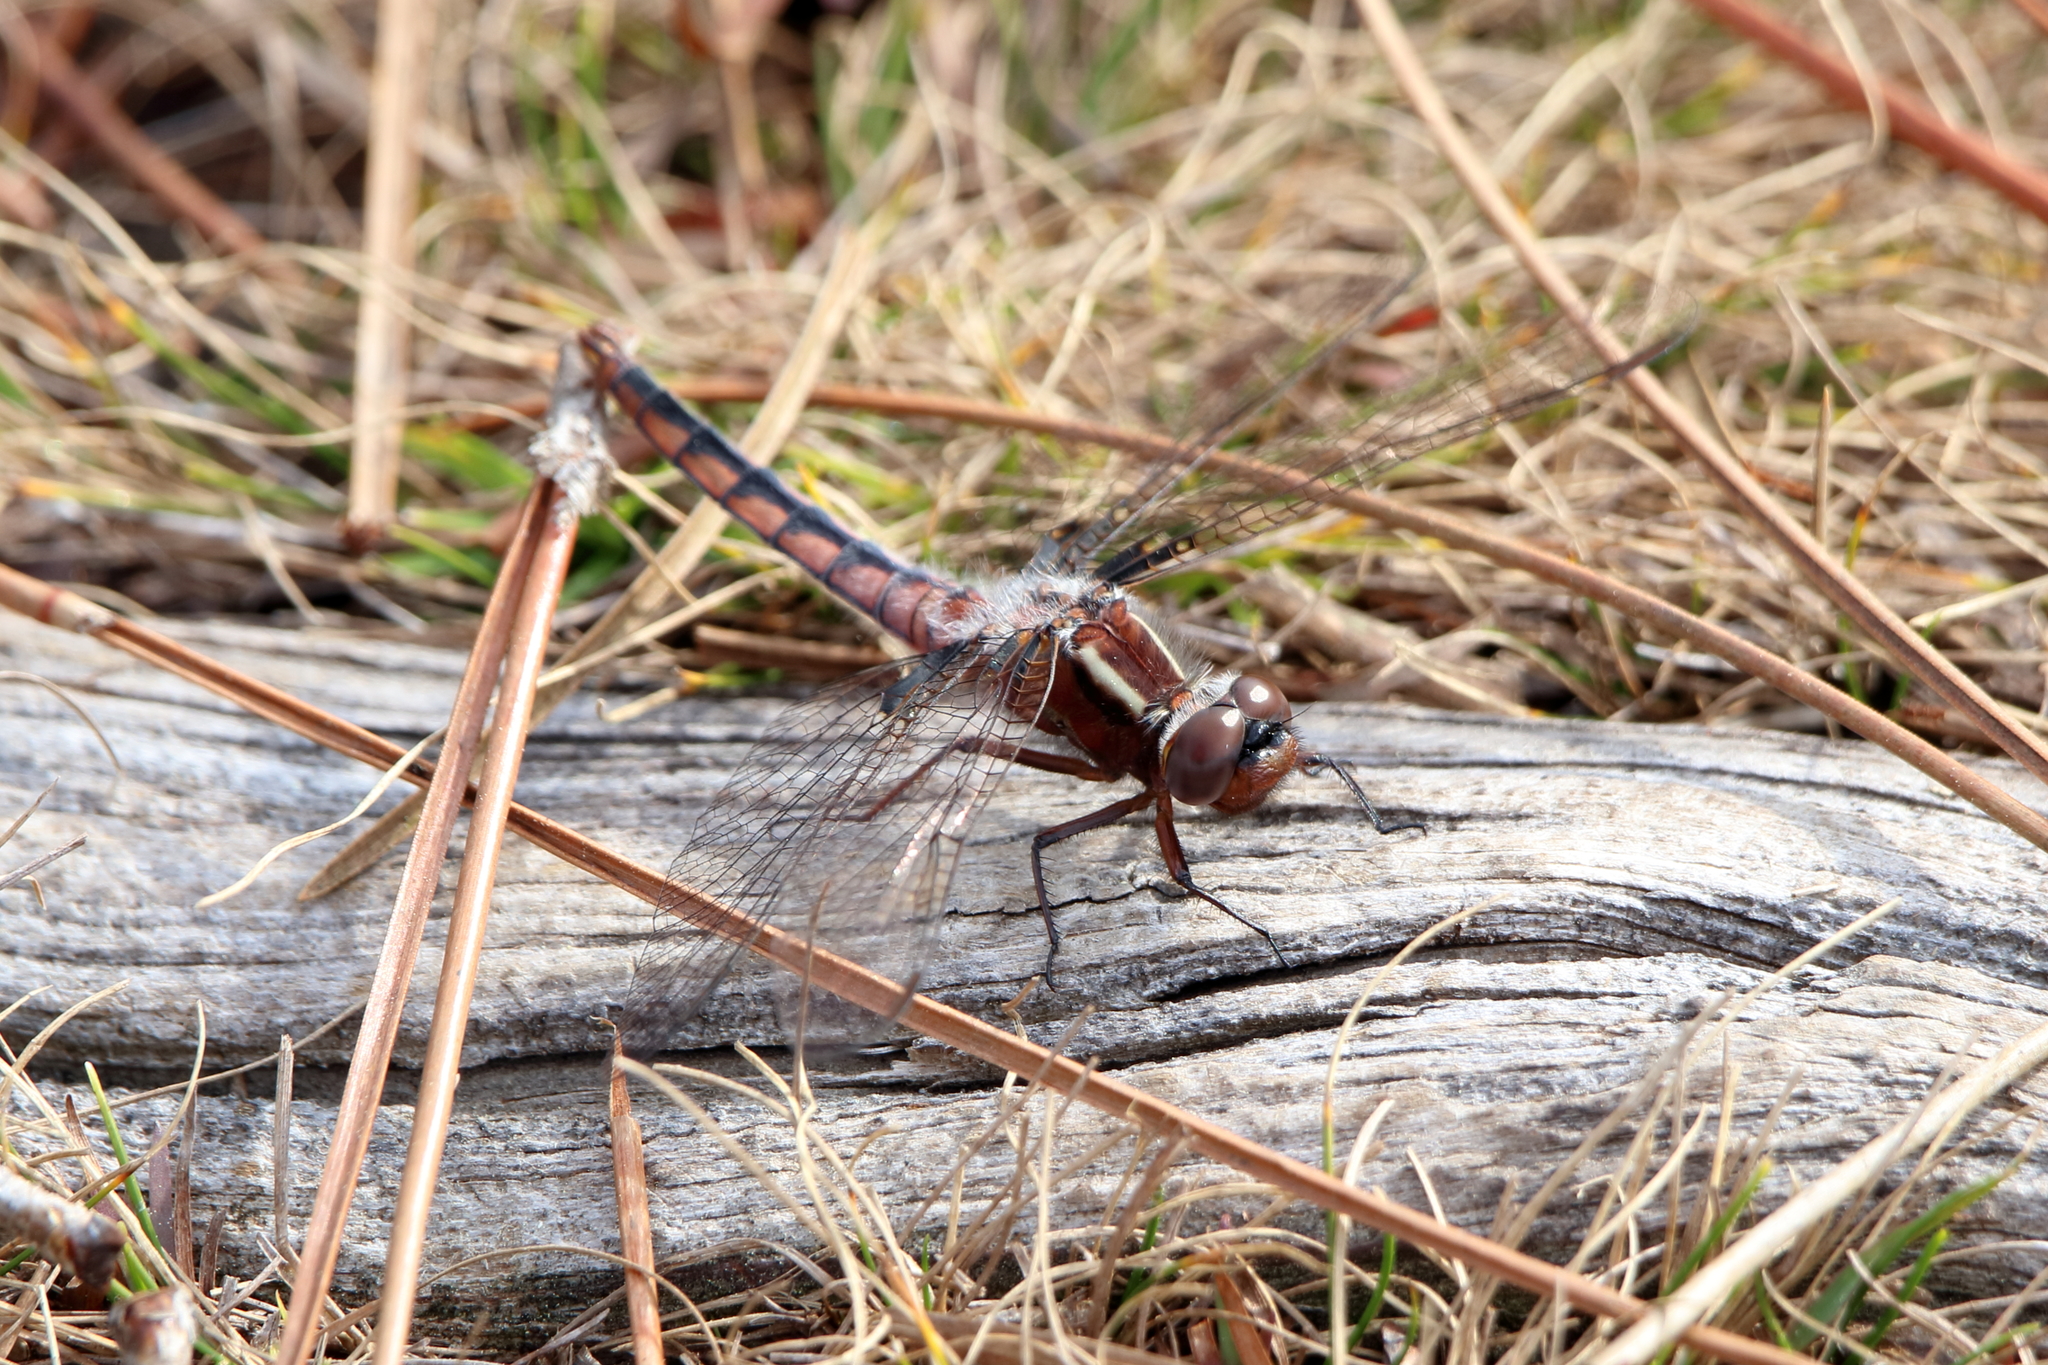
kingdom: Animalia
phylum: Arthropoda
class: Insecta
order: Odonata
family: Libellulidae
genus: Ladona
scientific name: Ladona deplanata
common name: Blue corporal
